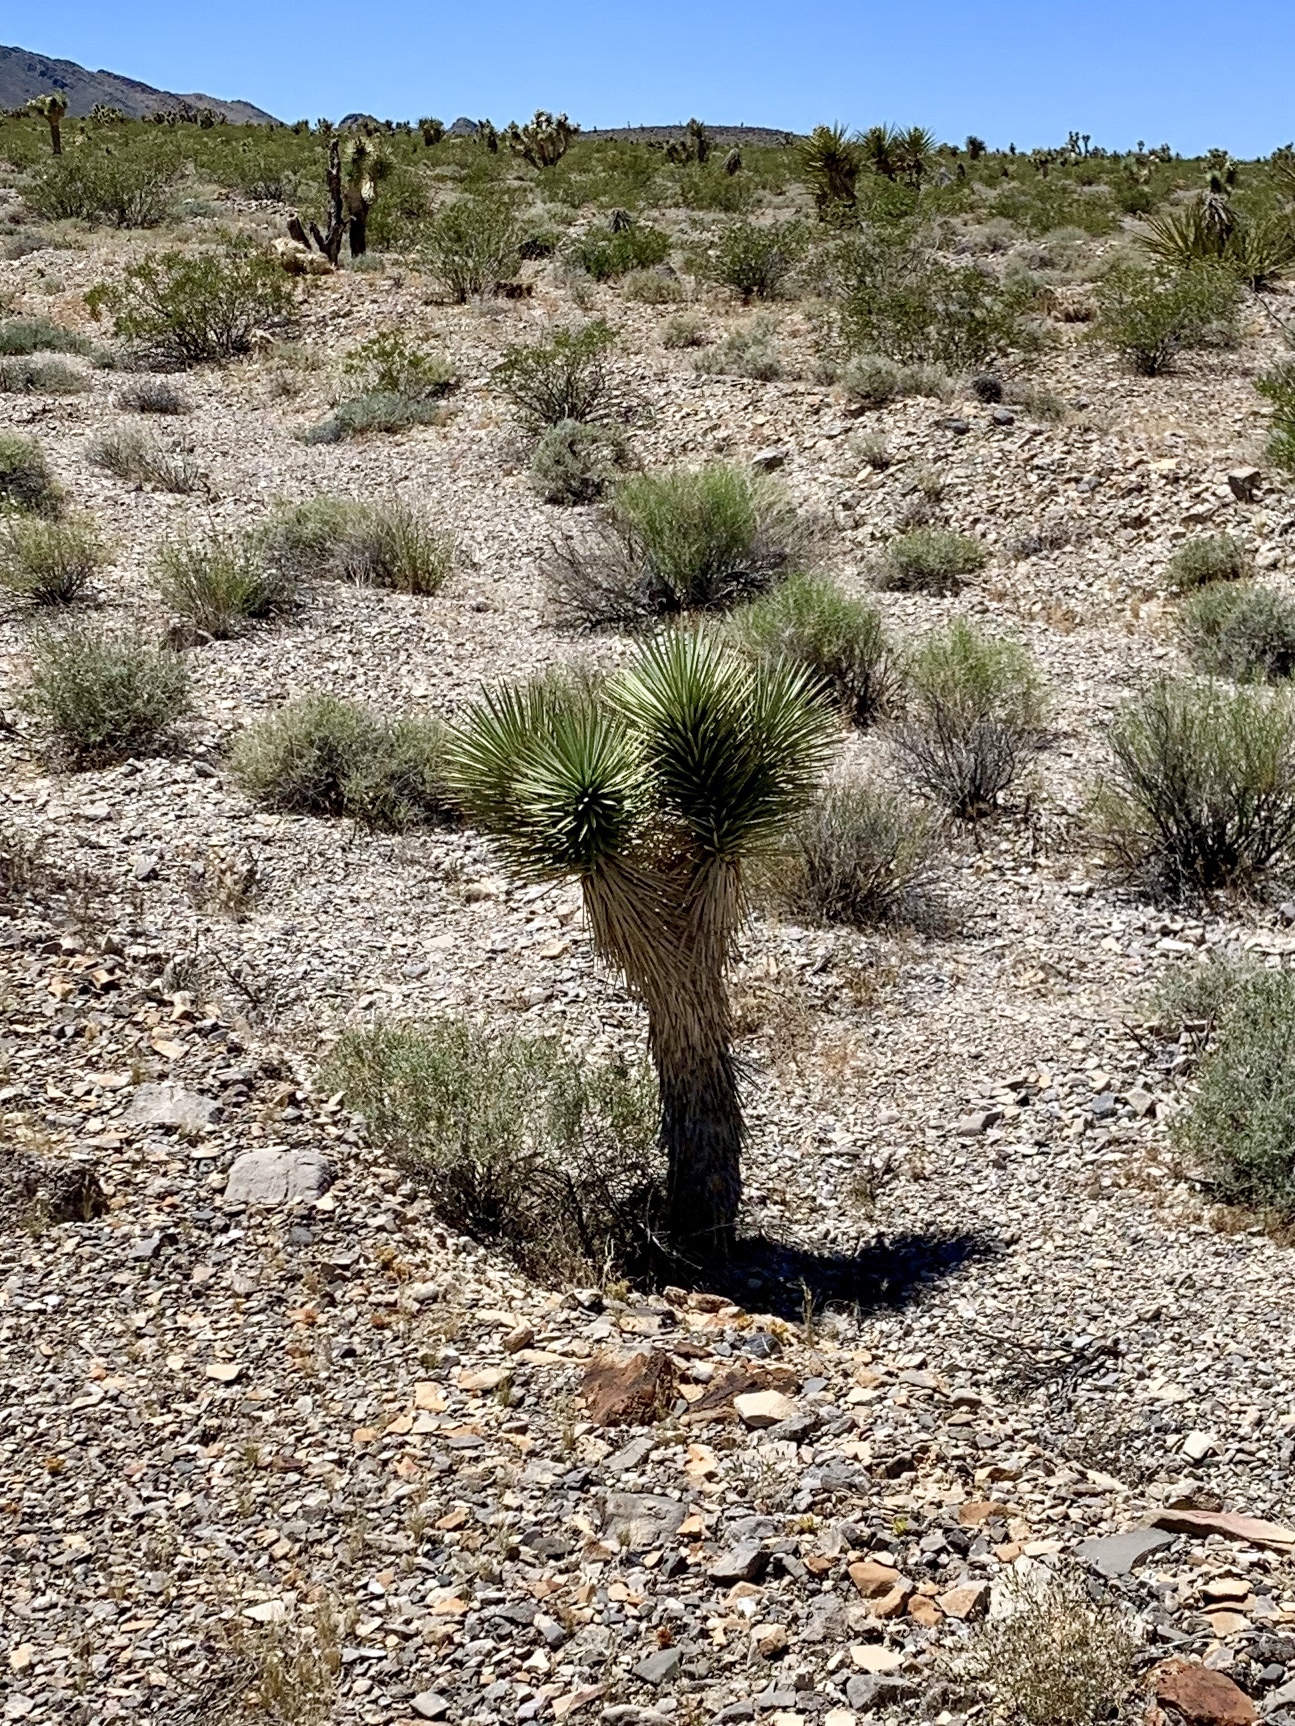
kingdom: Plantae
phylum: Tracheophyta
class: Liliopsida
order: Asparagales
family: Asparagaceae
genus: Yucca
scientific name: Yucca brevifolia
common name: Joshua tree
